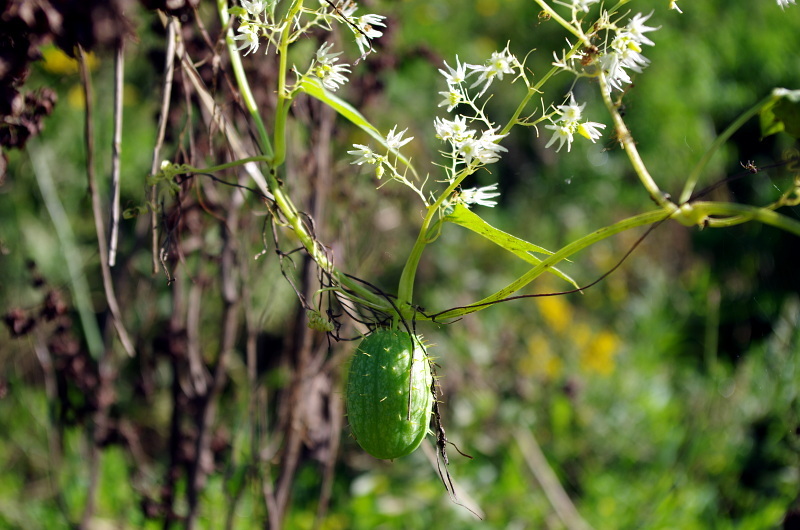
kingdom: Plantae
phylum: Tracheophyta
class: Magnoliopsida
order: Cucurbitales
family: Cucurbitaceae
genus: Echinocystis
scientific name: Echinocystis lobata
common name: Wild cucumber
